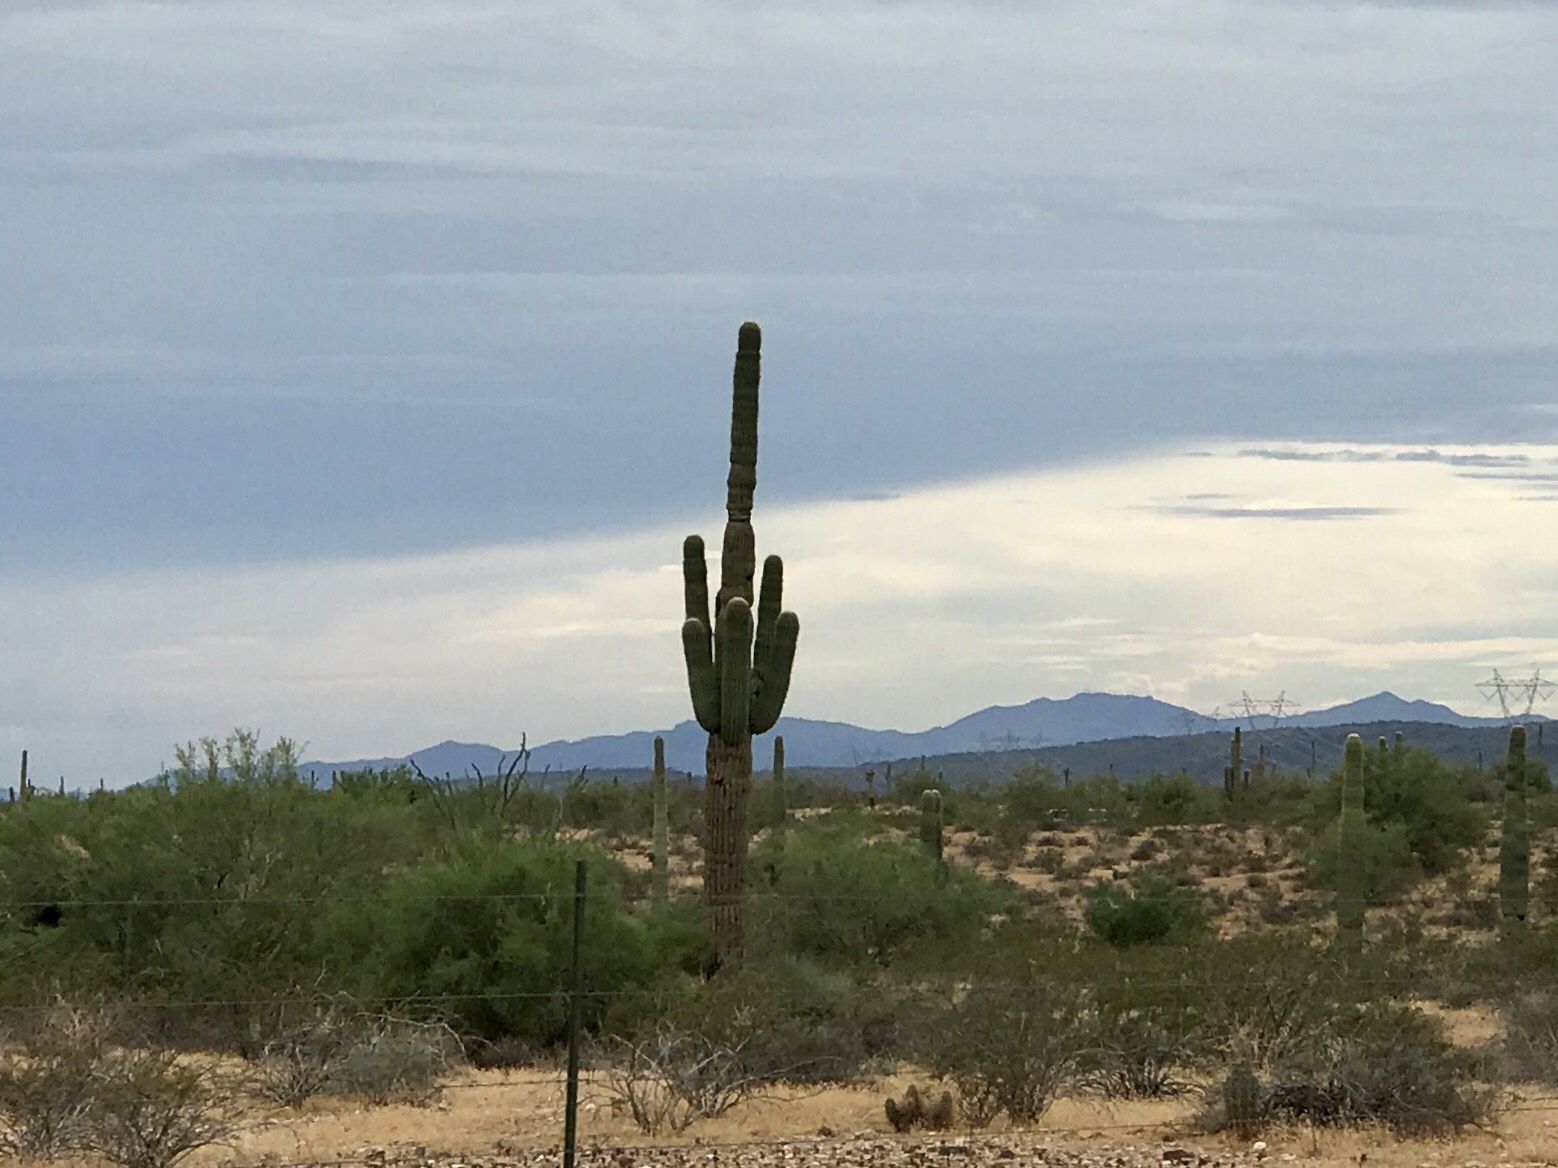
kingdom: Plantae
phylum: Tracheophyta
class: Magnoliopsida
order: Caryophyllales
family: Cactaceae
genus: Carnegiea
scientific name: Carnegiea gigantea
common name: Saguaro
